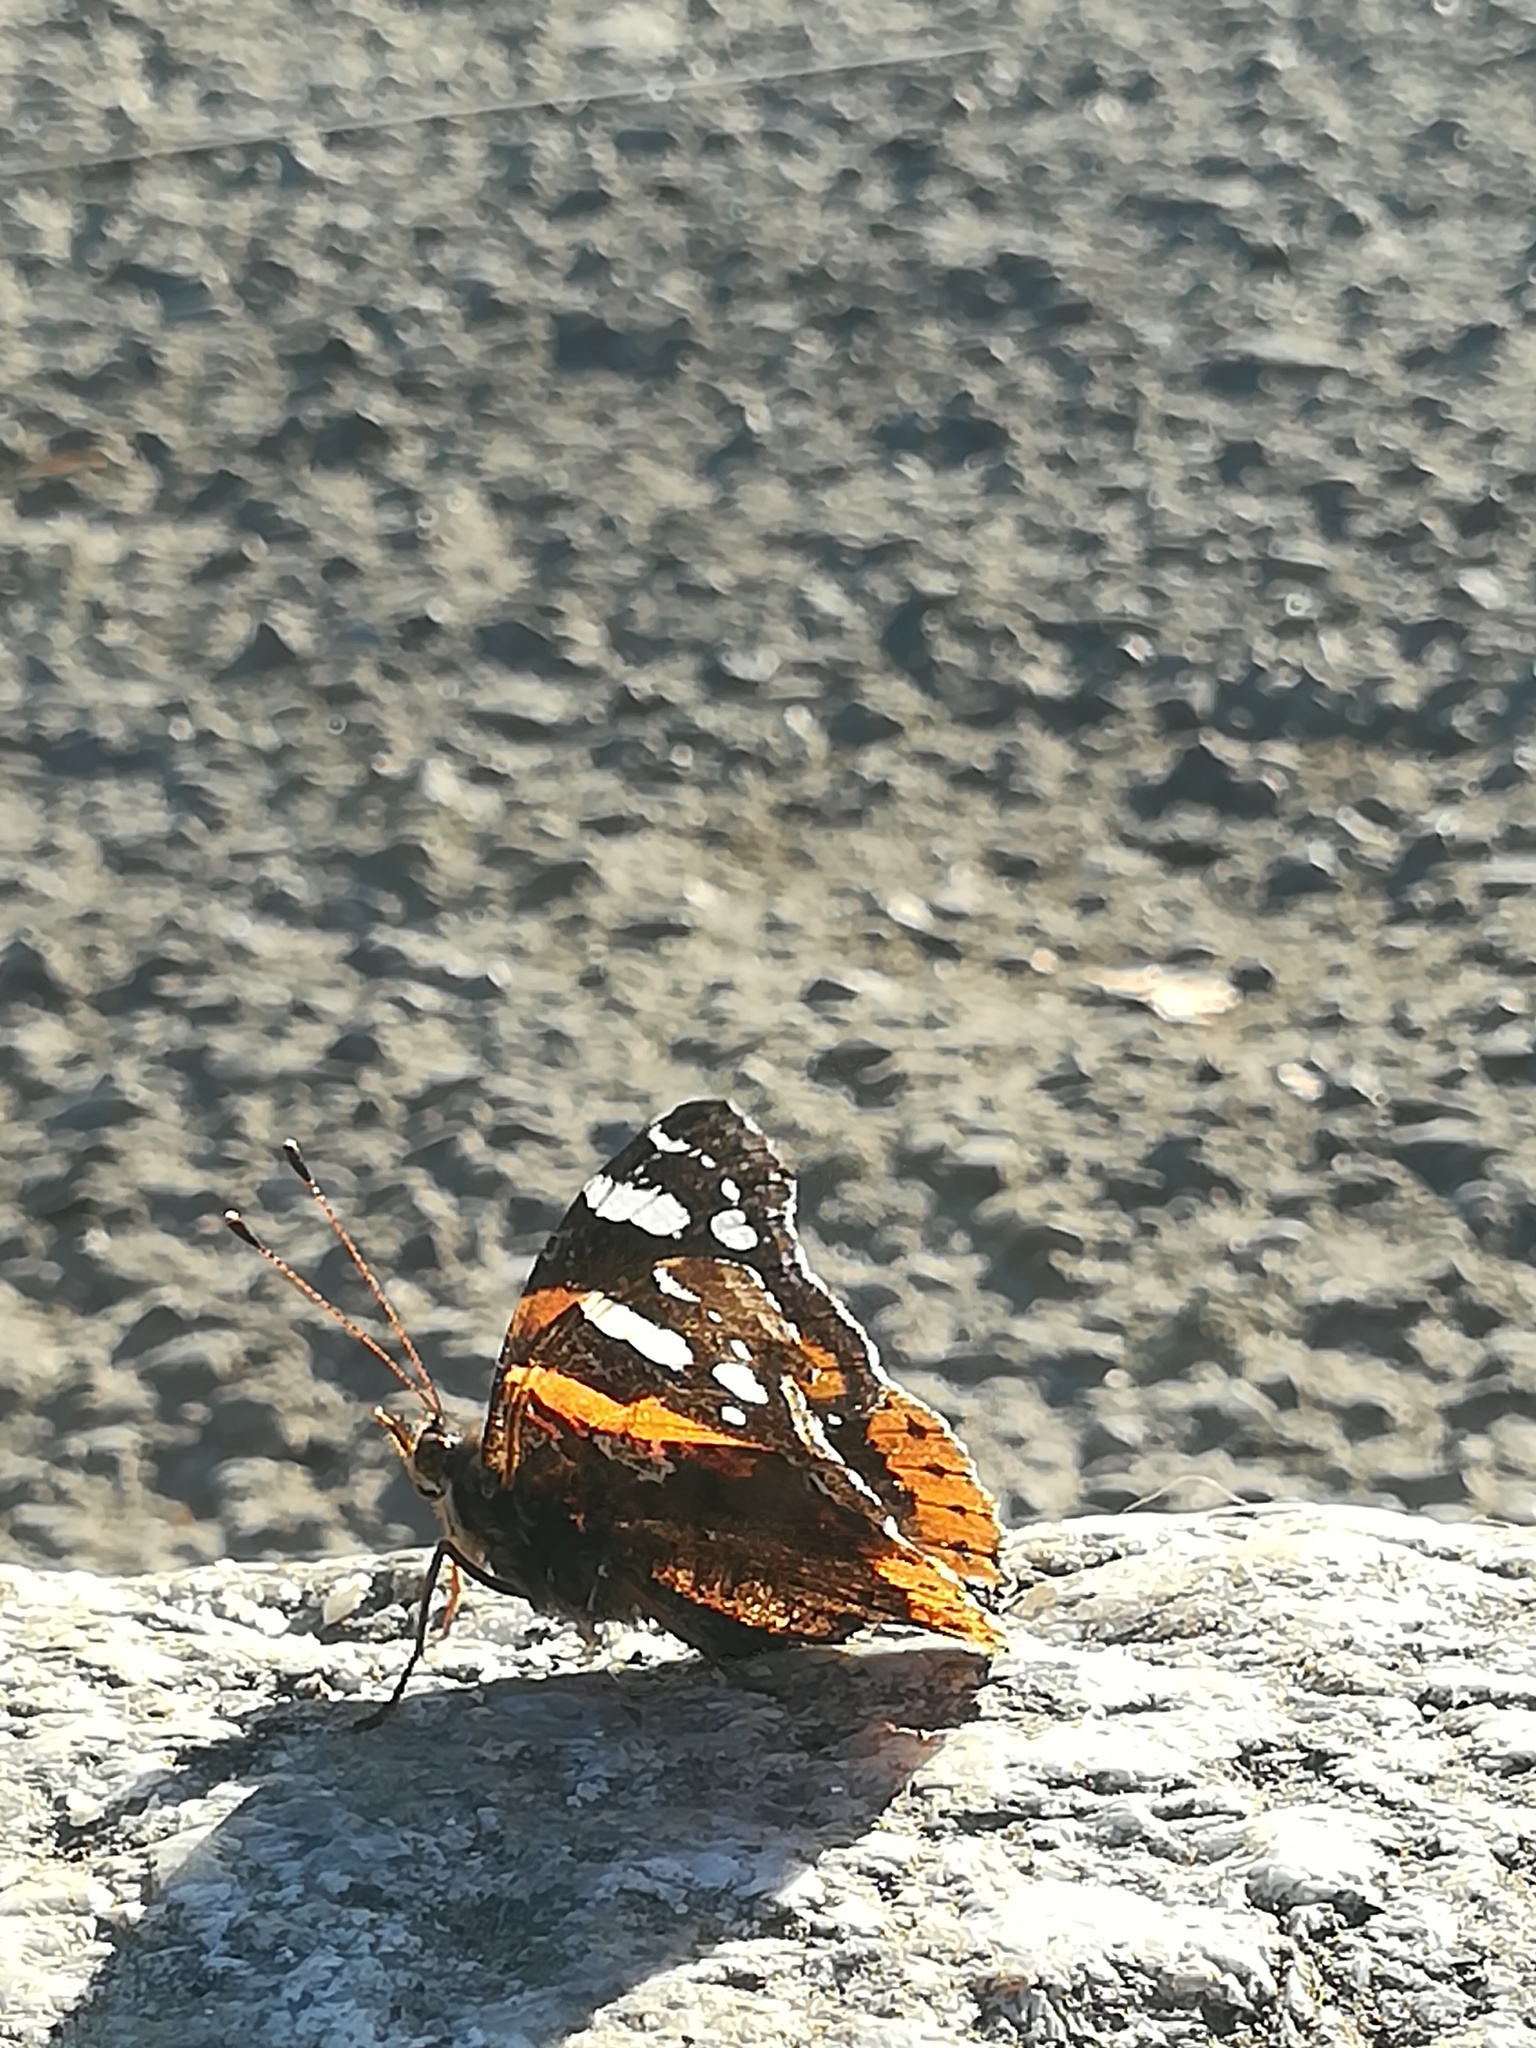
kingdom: Animalia
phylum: Arthropoda
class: Insecta
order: Lepidoptera
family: Nymphalidae
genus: Vanessa
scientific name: Vanessa atalanta
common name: Red admiral
